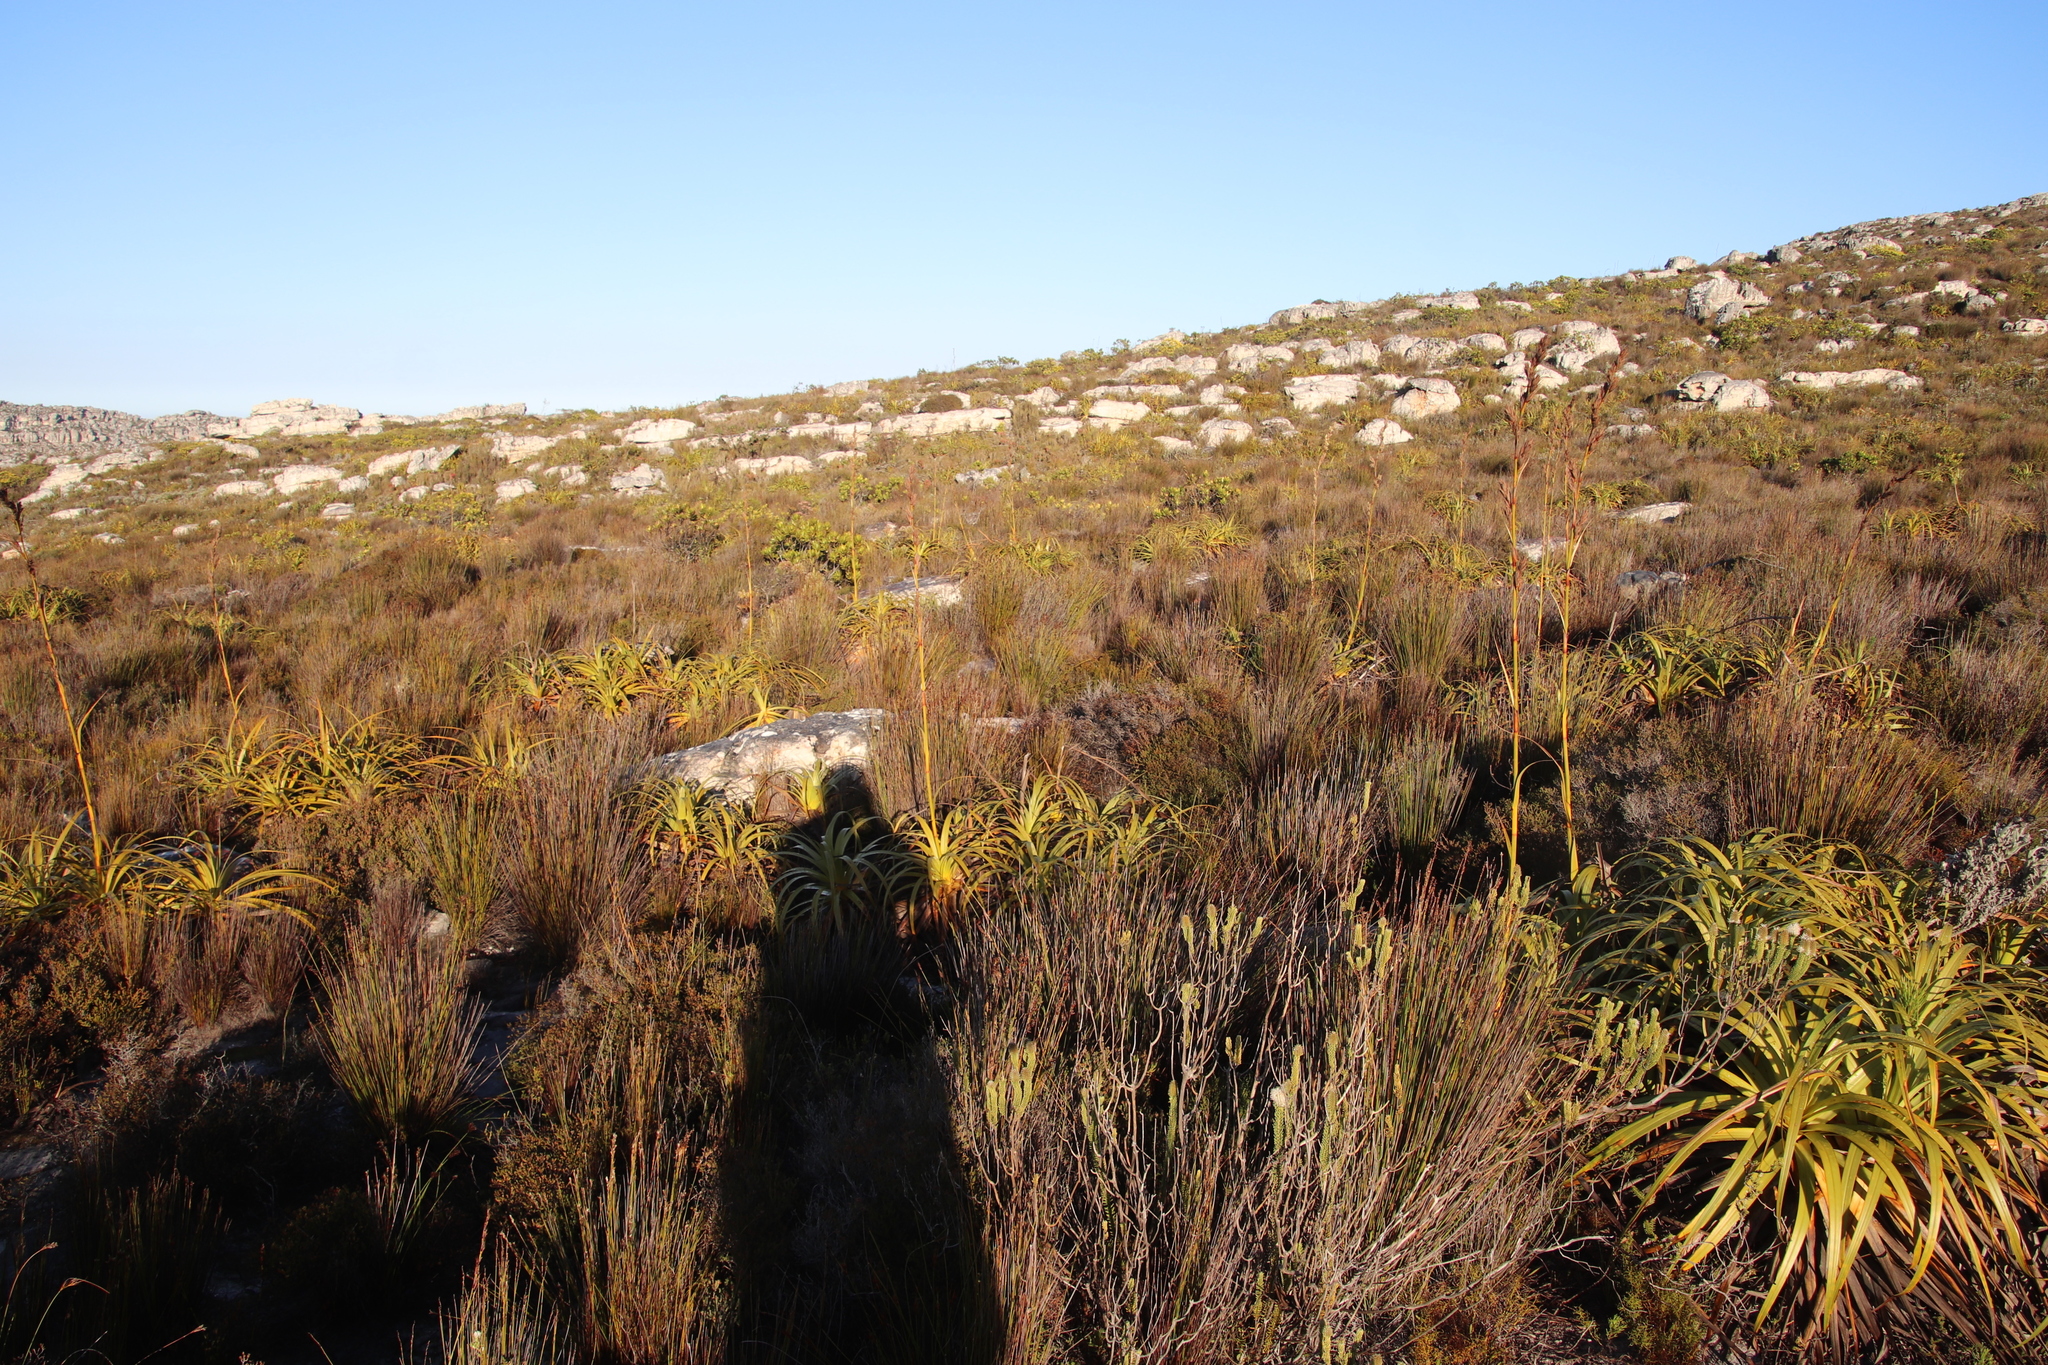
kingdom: Plantae
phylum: Tracheophyta
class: Liliopsida
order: Poales
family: Cyperaceae
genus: Tetraria
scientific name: Tetraria thermalis
